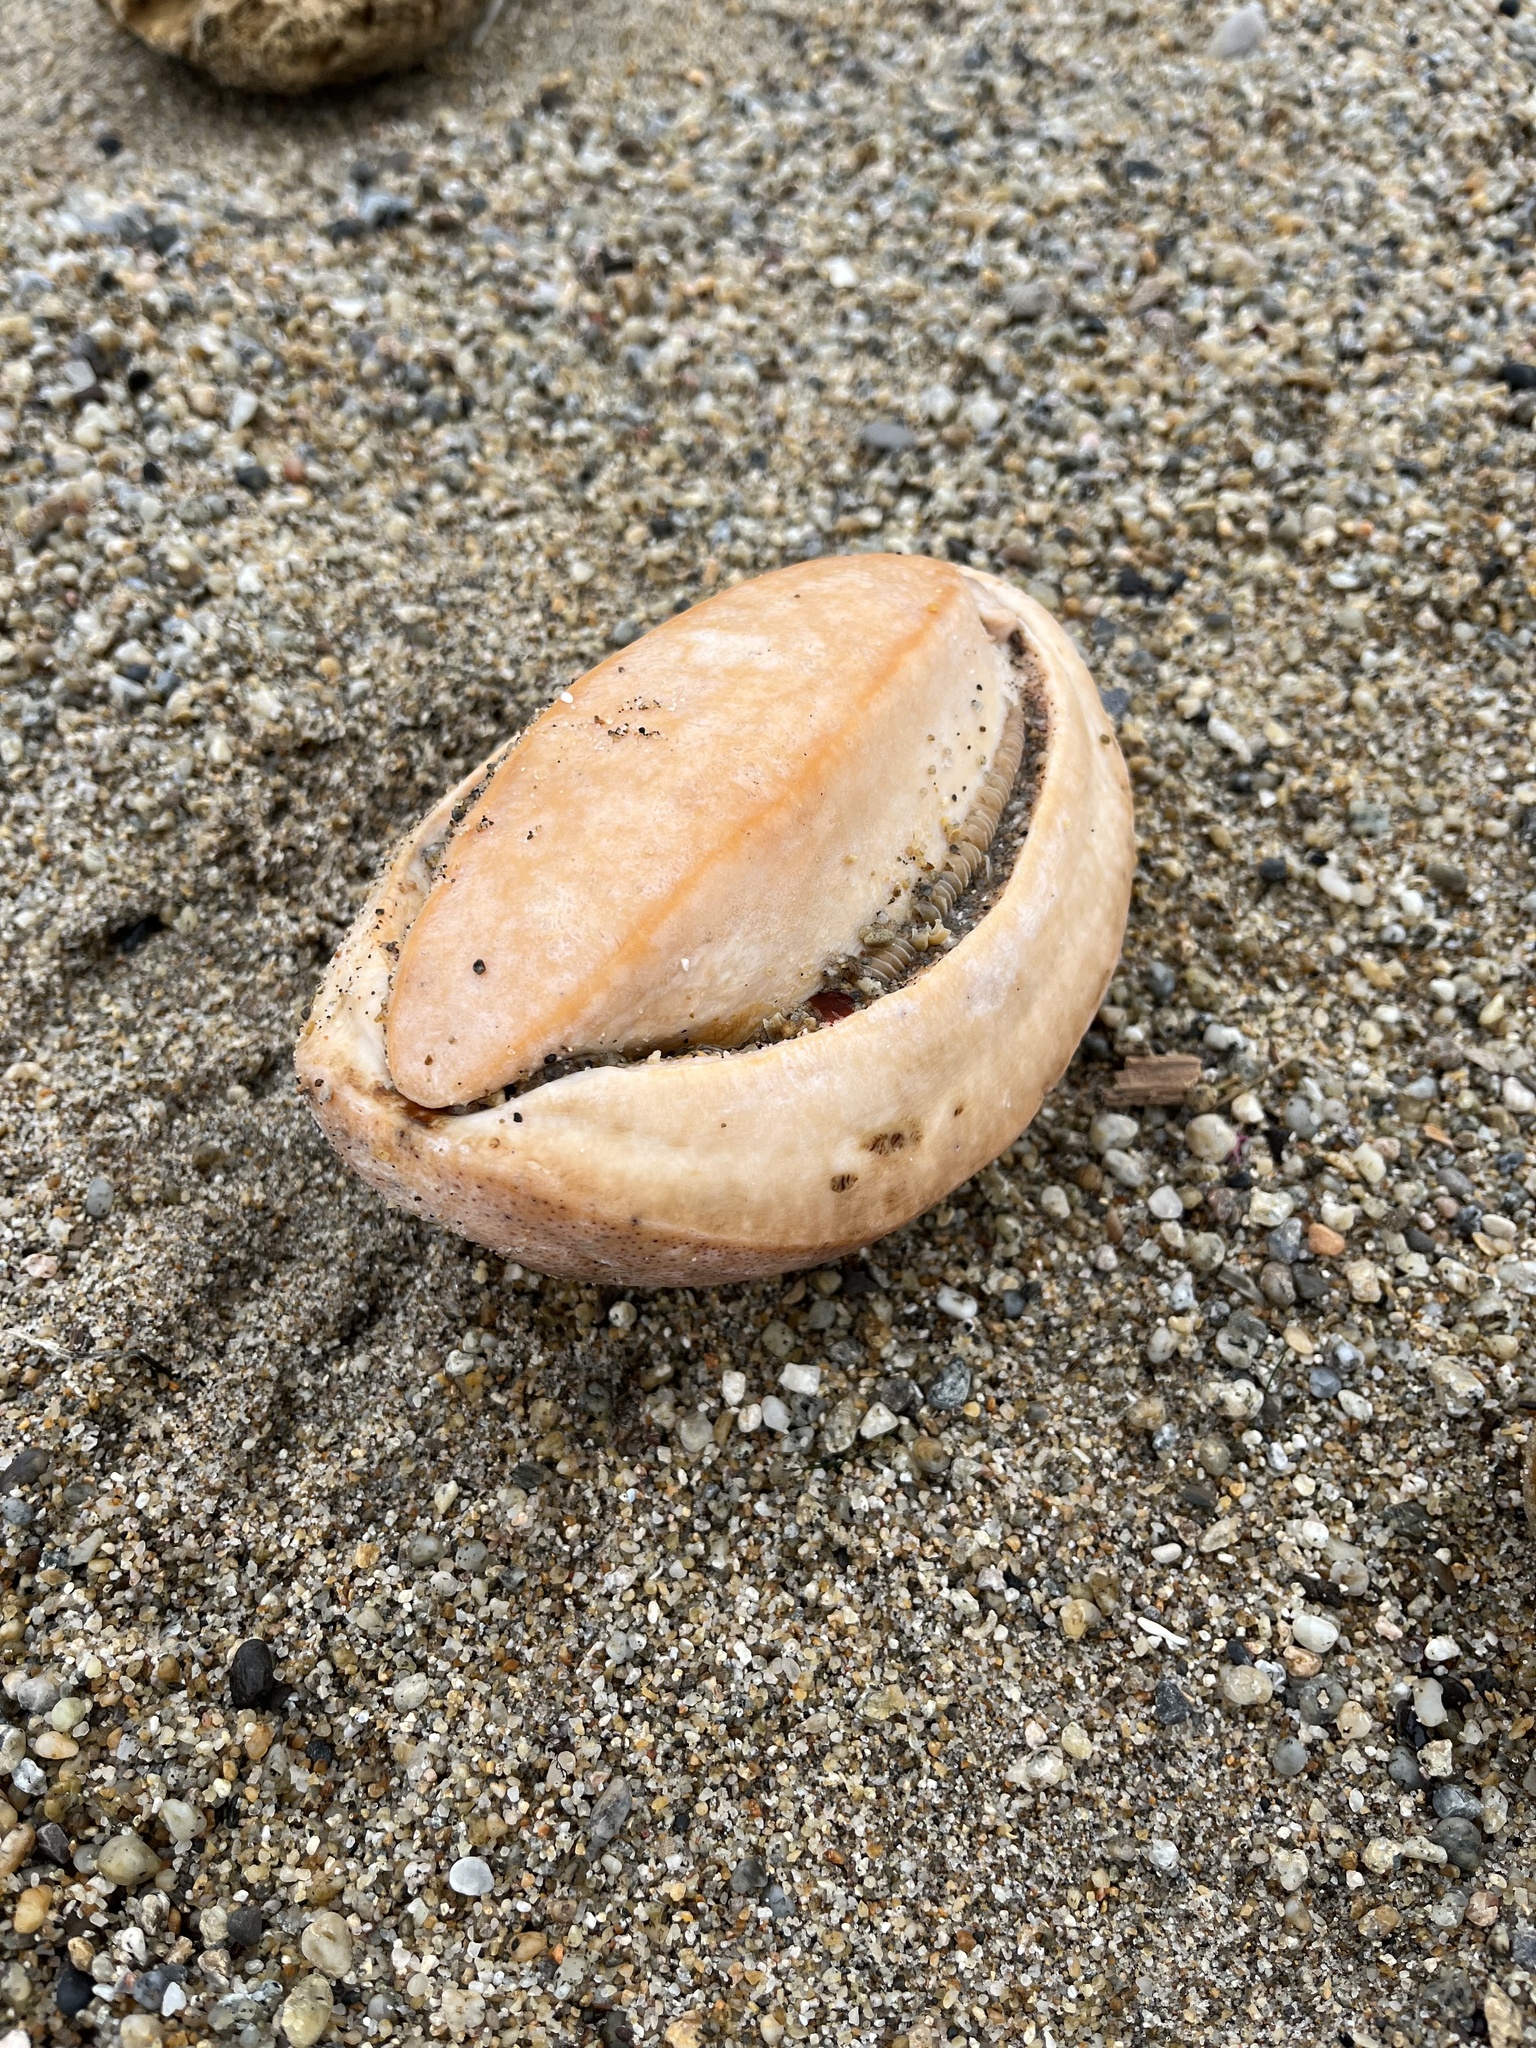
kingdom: Animalia
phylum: Mollusca
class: Polyplacophora
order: Chitonida
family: Acanthochitonidae
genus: Cryptochiton
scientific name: Cryptochiton stelleri
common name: Giant pacific chiton
